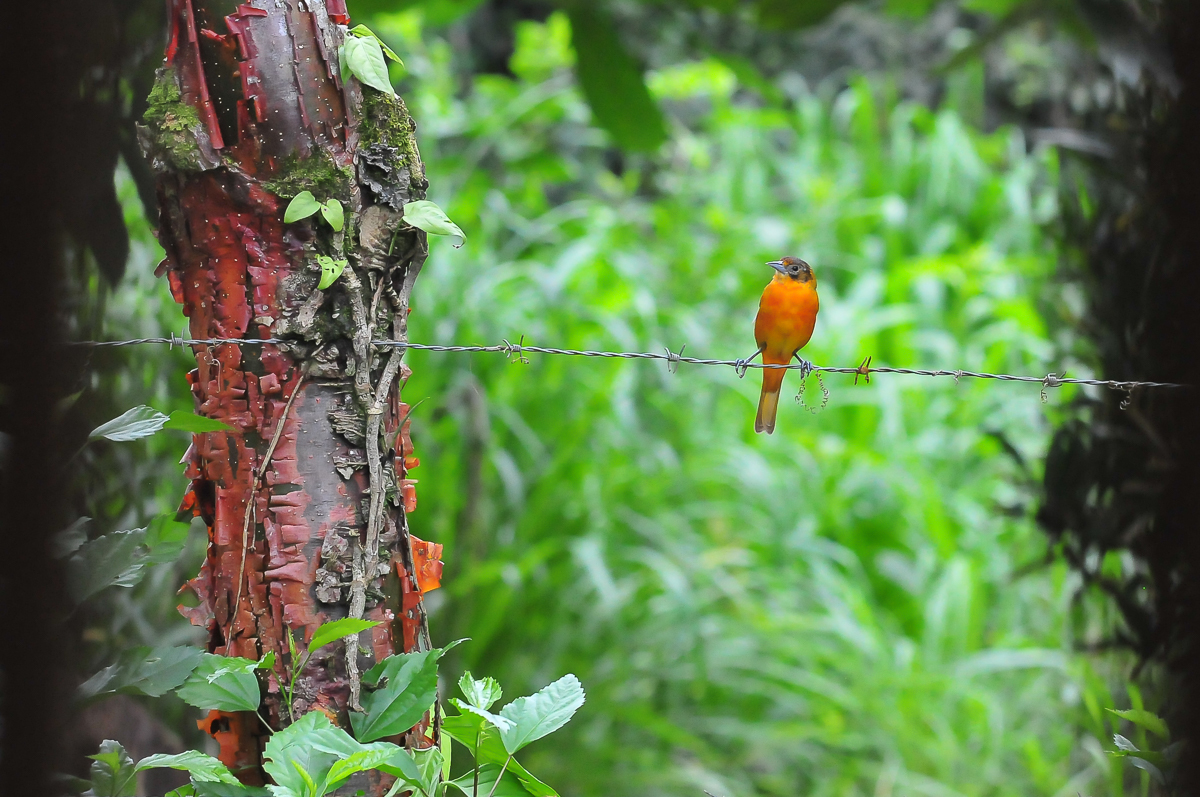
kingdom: Animalia
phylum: Chordata
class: Aves
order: Passeriformes
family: Icteridae
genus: Icterus
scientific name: Icterus galbula
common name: Baltimore oriole
